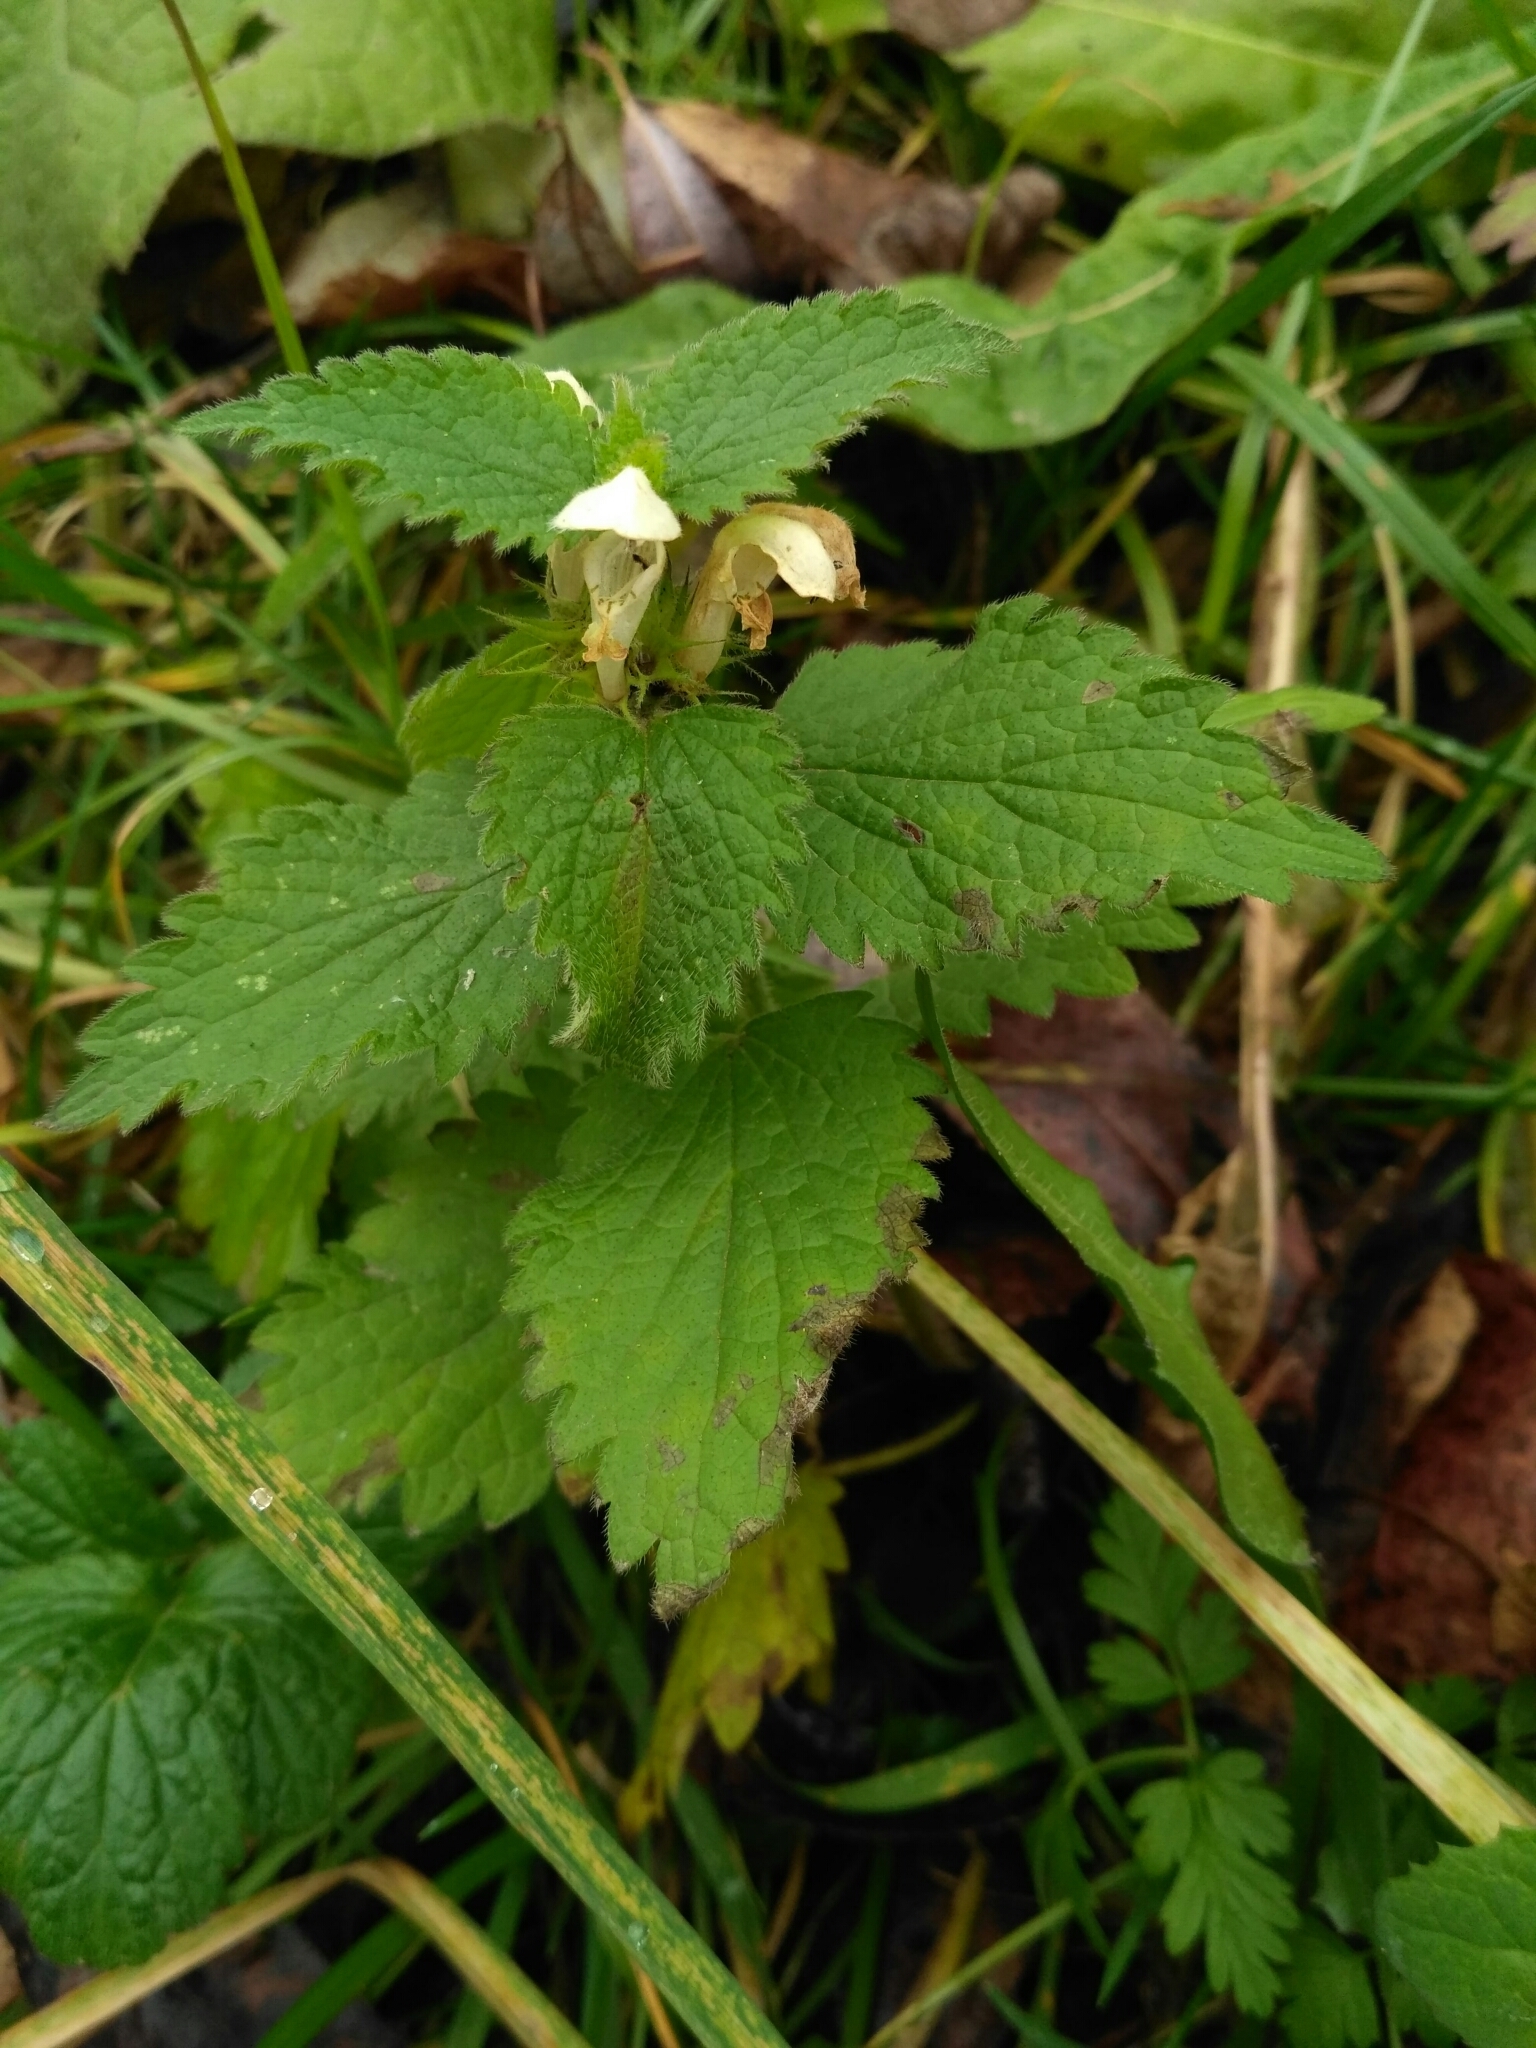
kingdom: Plantae
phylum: Tracheophyta
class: Magnoliopsida
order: Lamiales
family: Lamiaceae
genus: Lamium
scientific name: Lamium album
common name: White dead-nettle
